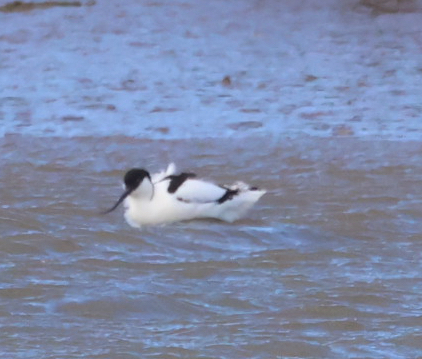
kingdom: Animalia
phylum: Chordata
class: Aves
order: Charadriiformes
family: Recurvirostridae
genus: Recurvirostra
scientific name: Recurvirostra avosetta
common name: Pied avocet
